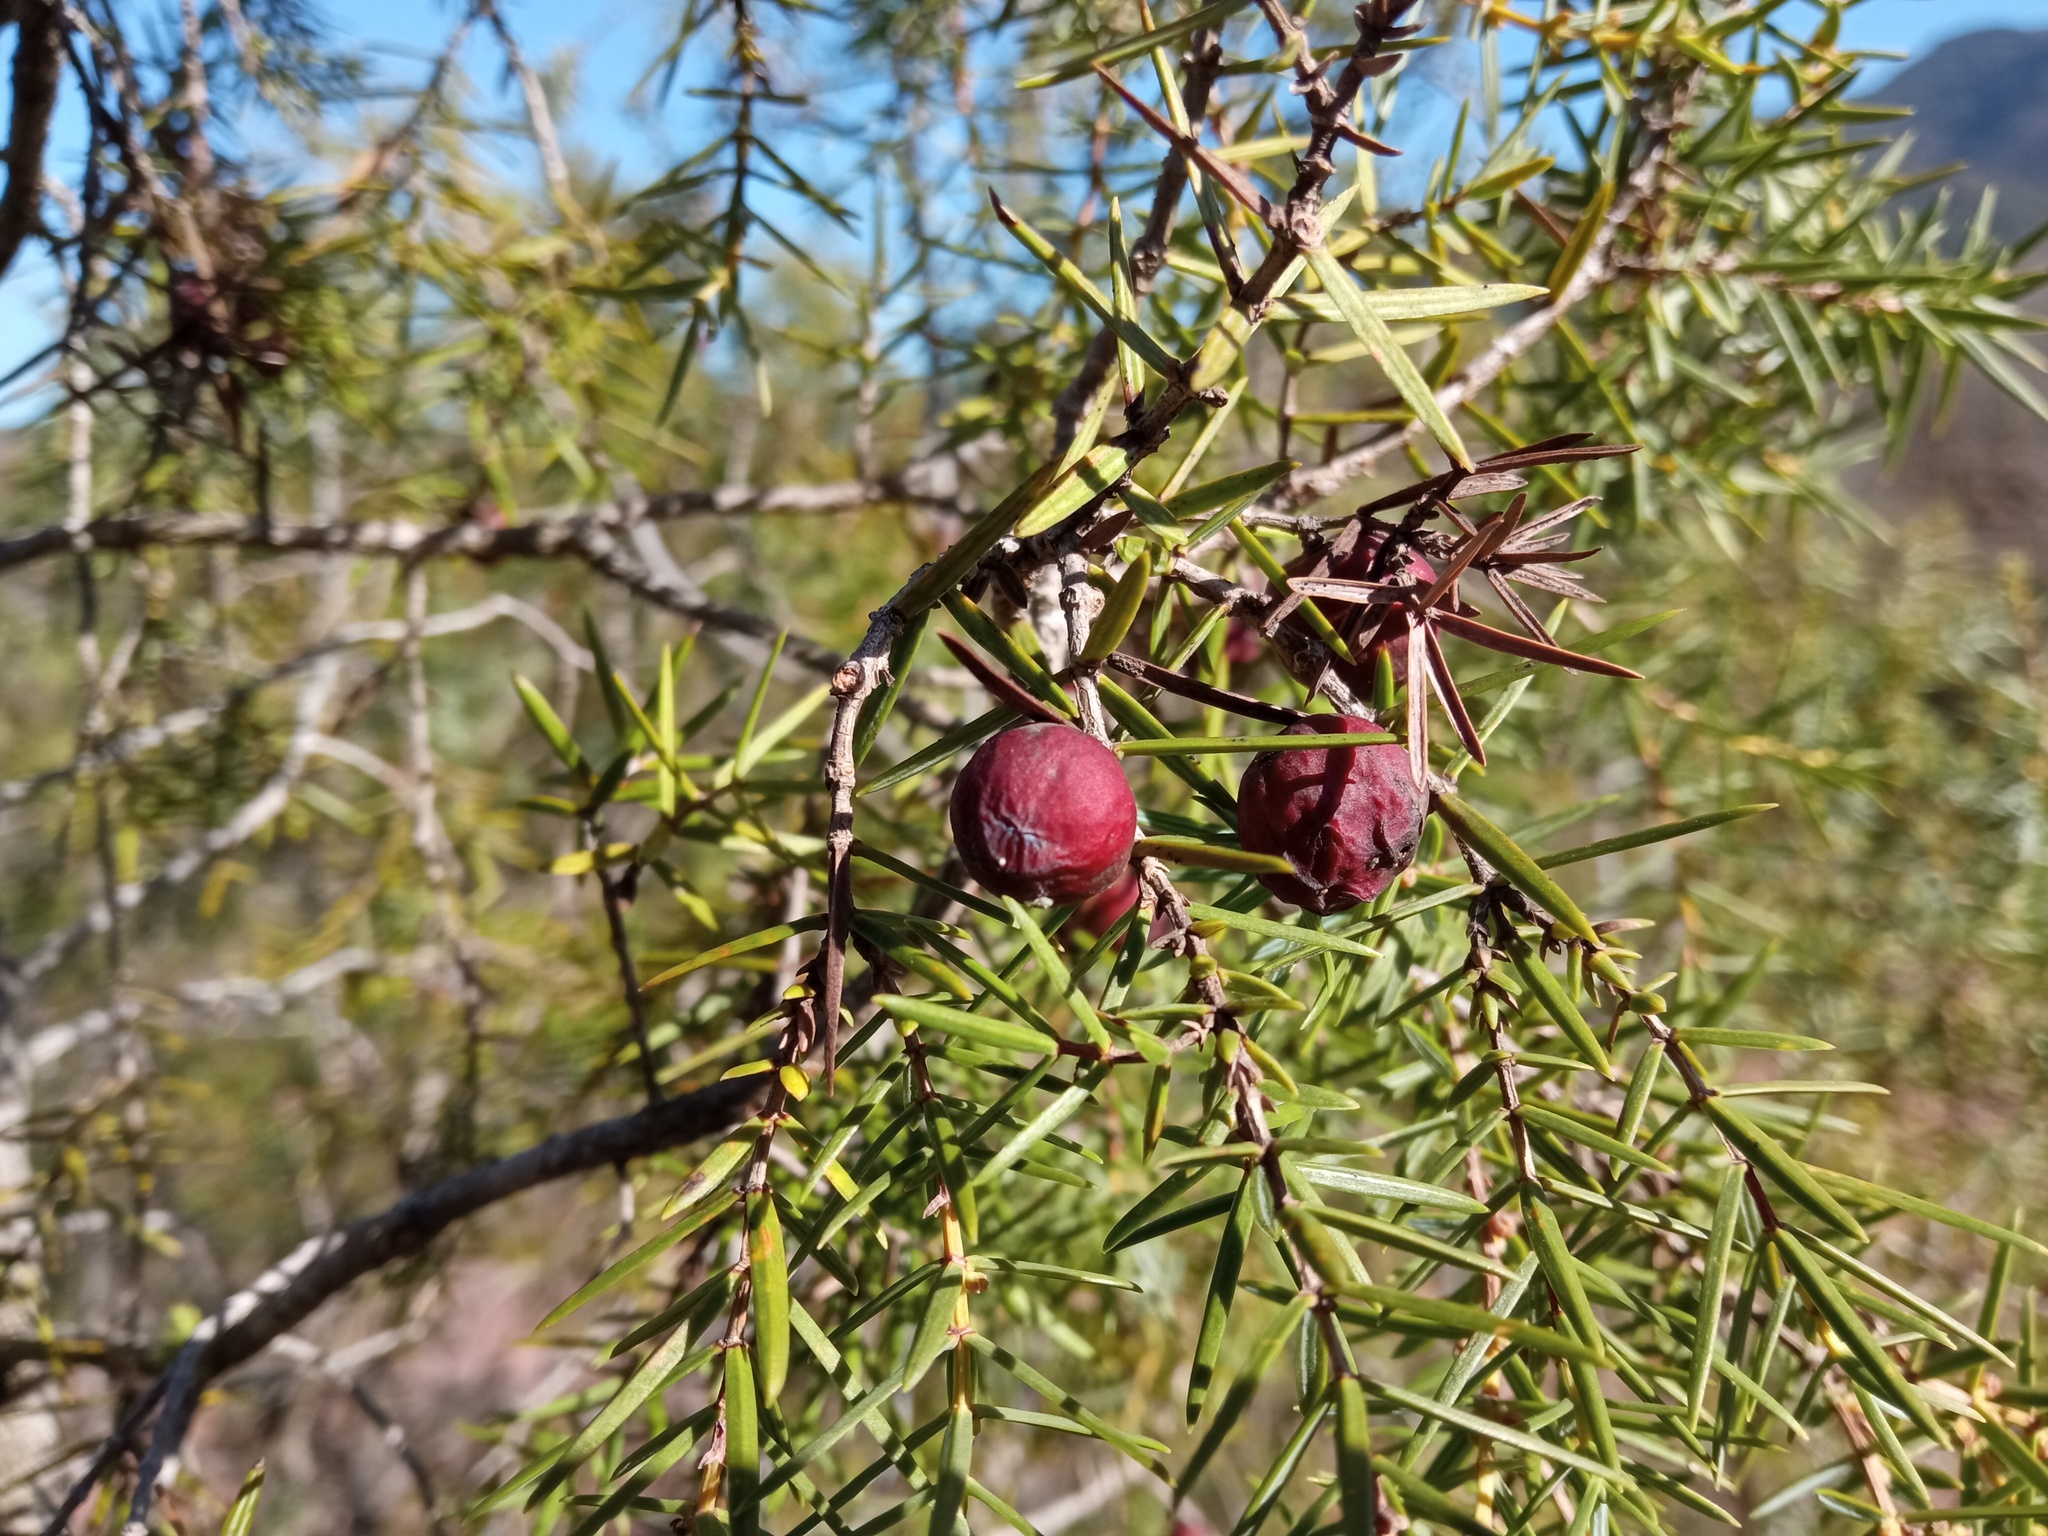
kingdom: Plantae
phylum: Tracheophyta
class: Pinopsida
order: Pinales
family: Cupressaceae
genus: Juniperus
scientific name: Juniperus oxycedrus
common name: Prickly juniper
